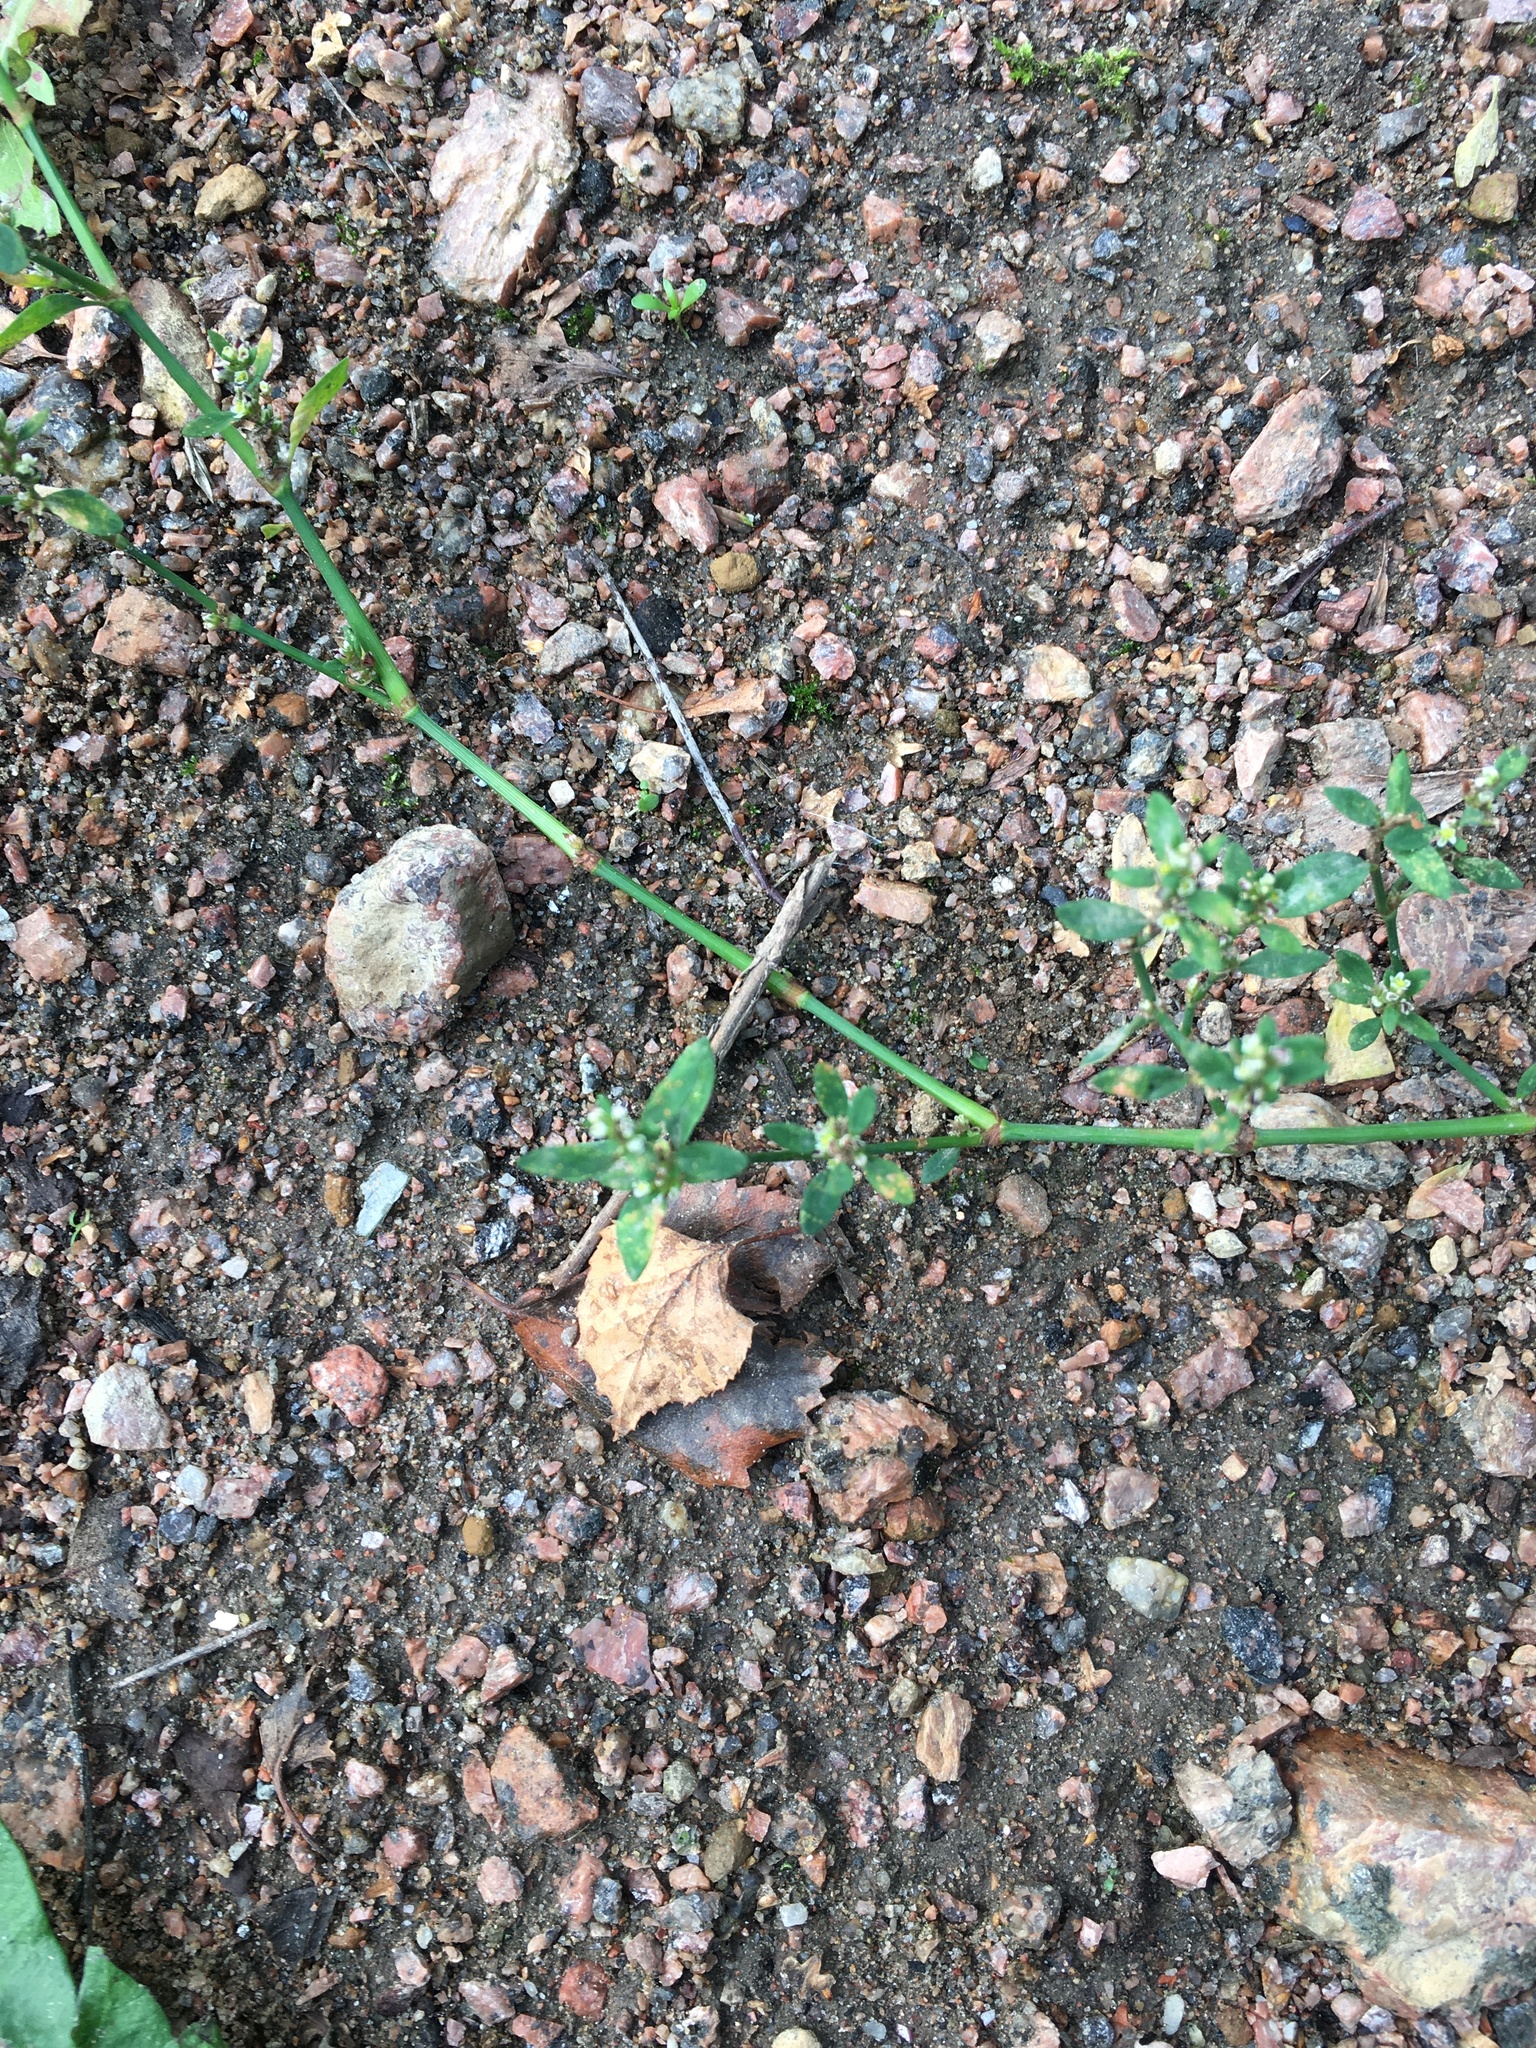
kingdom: Plantae
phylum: Tracheophyta
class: Magnoliopsida
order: Caryophyllales
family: Polygonaceae
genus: Polygonum
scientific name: Polygonum
